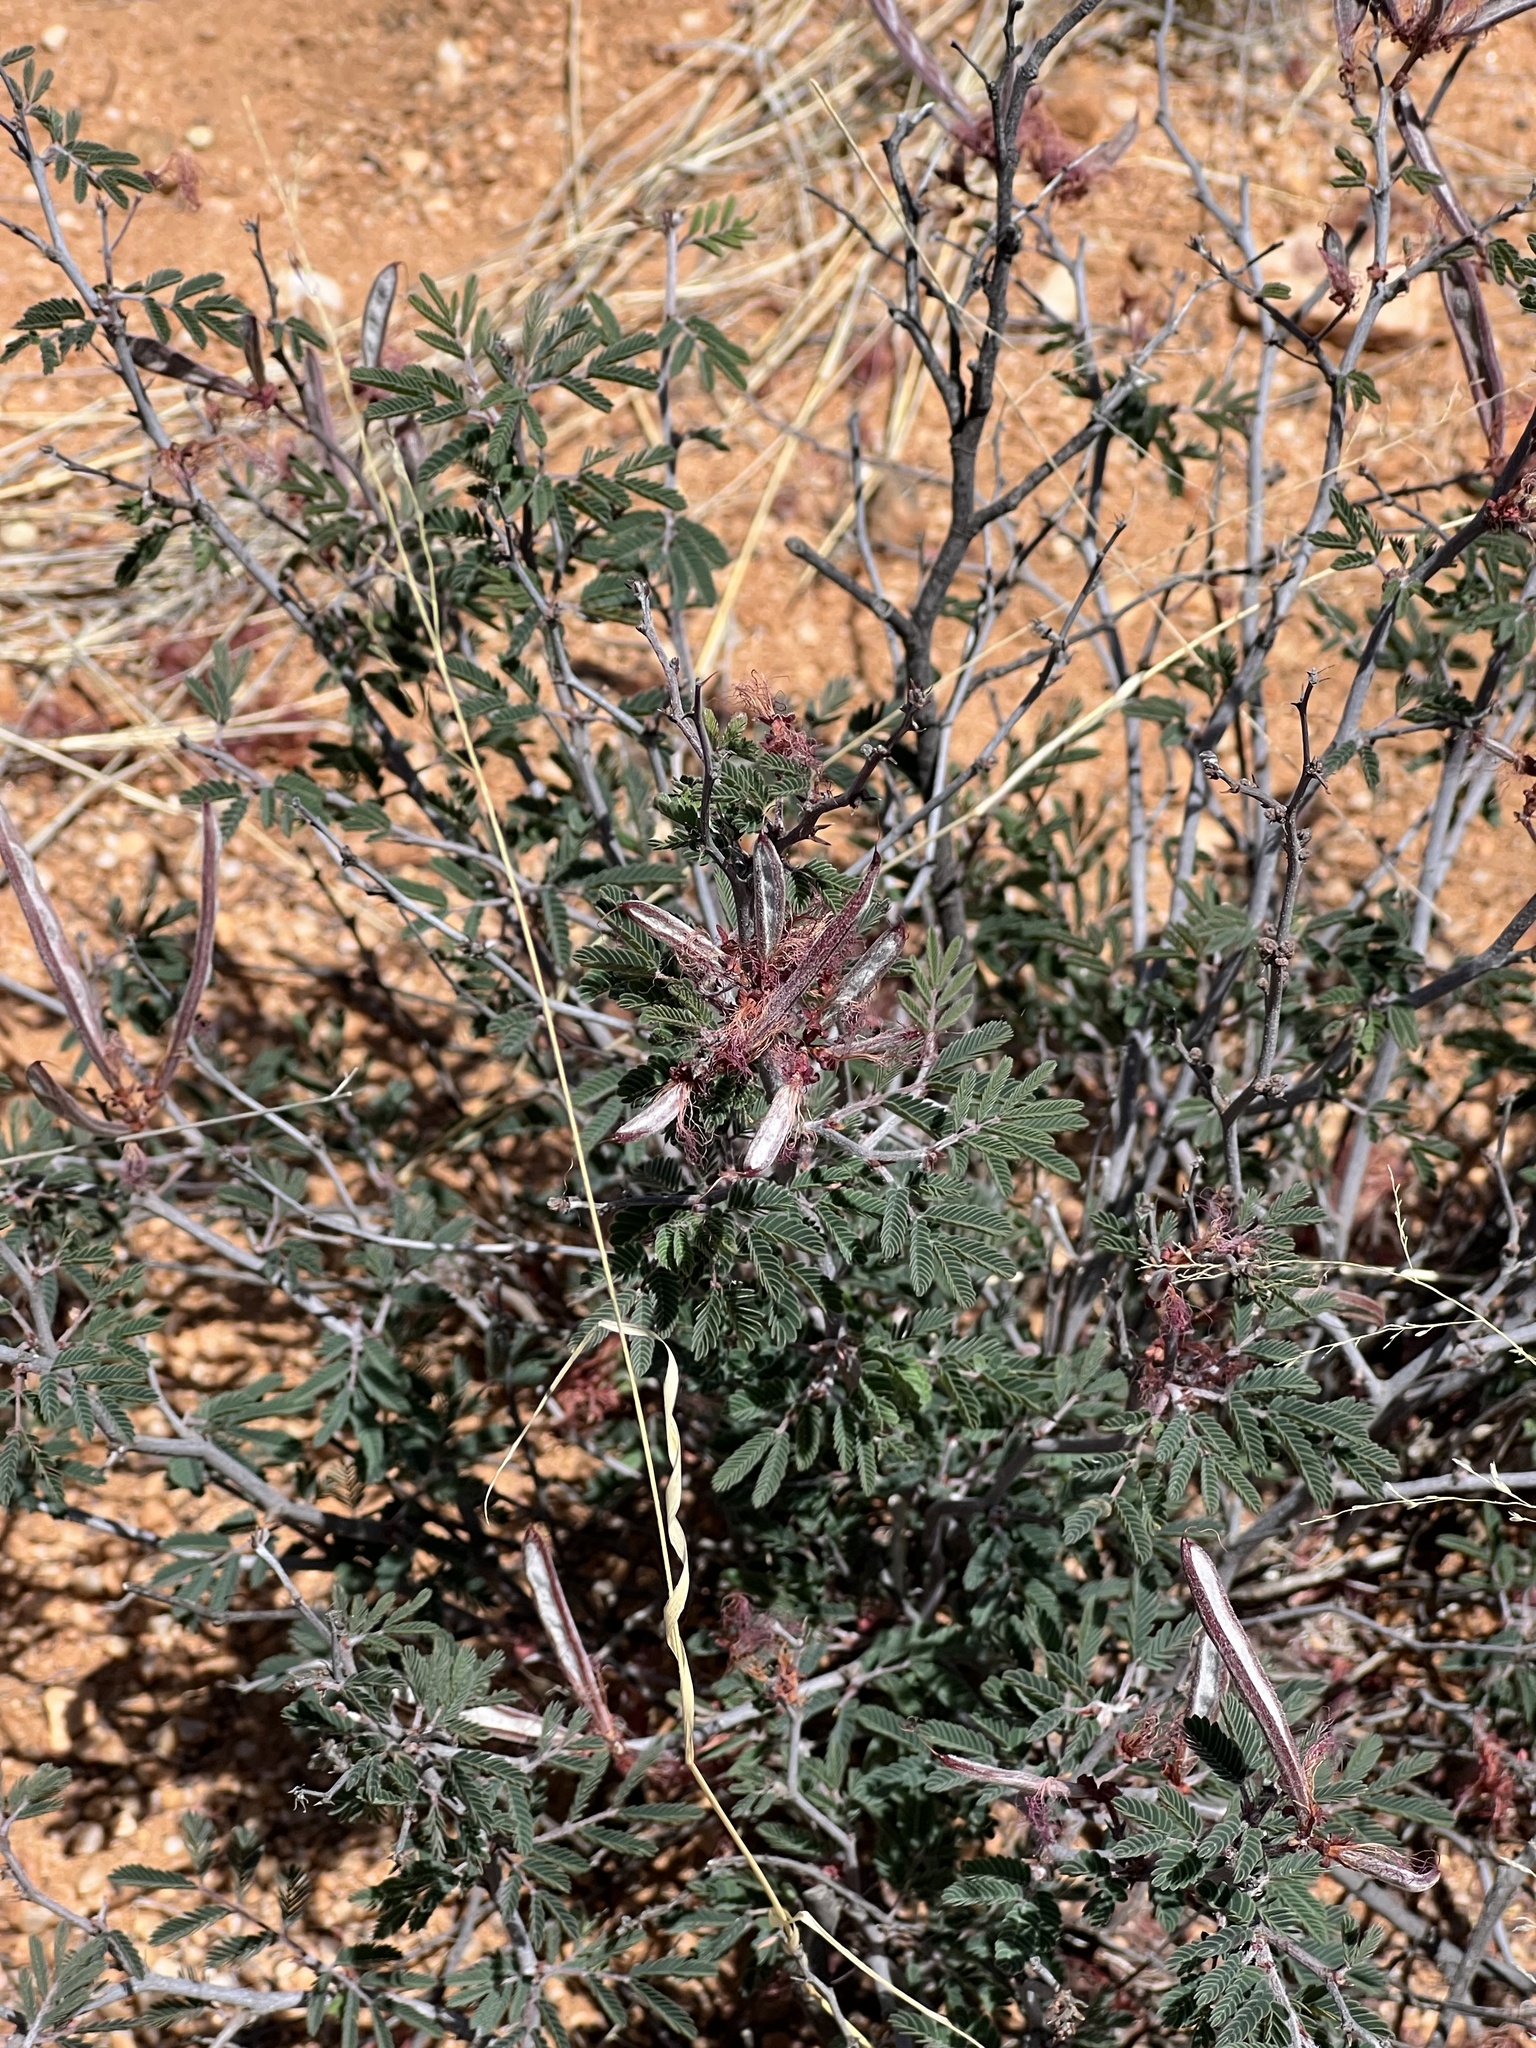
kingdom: Plantae
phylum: Tracheophyta
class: Magnoliopsida
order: Fabales
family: Fabaceae
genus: Calliandra
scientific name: Calliandra eriophylla
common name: Fairy-duster
